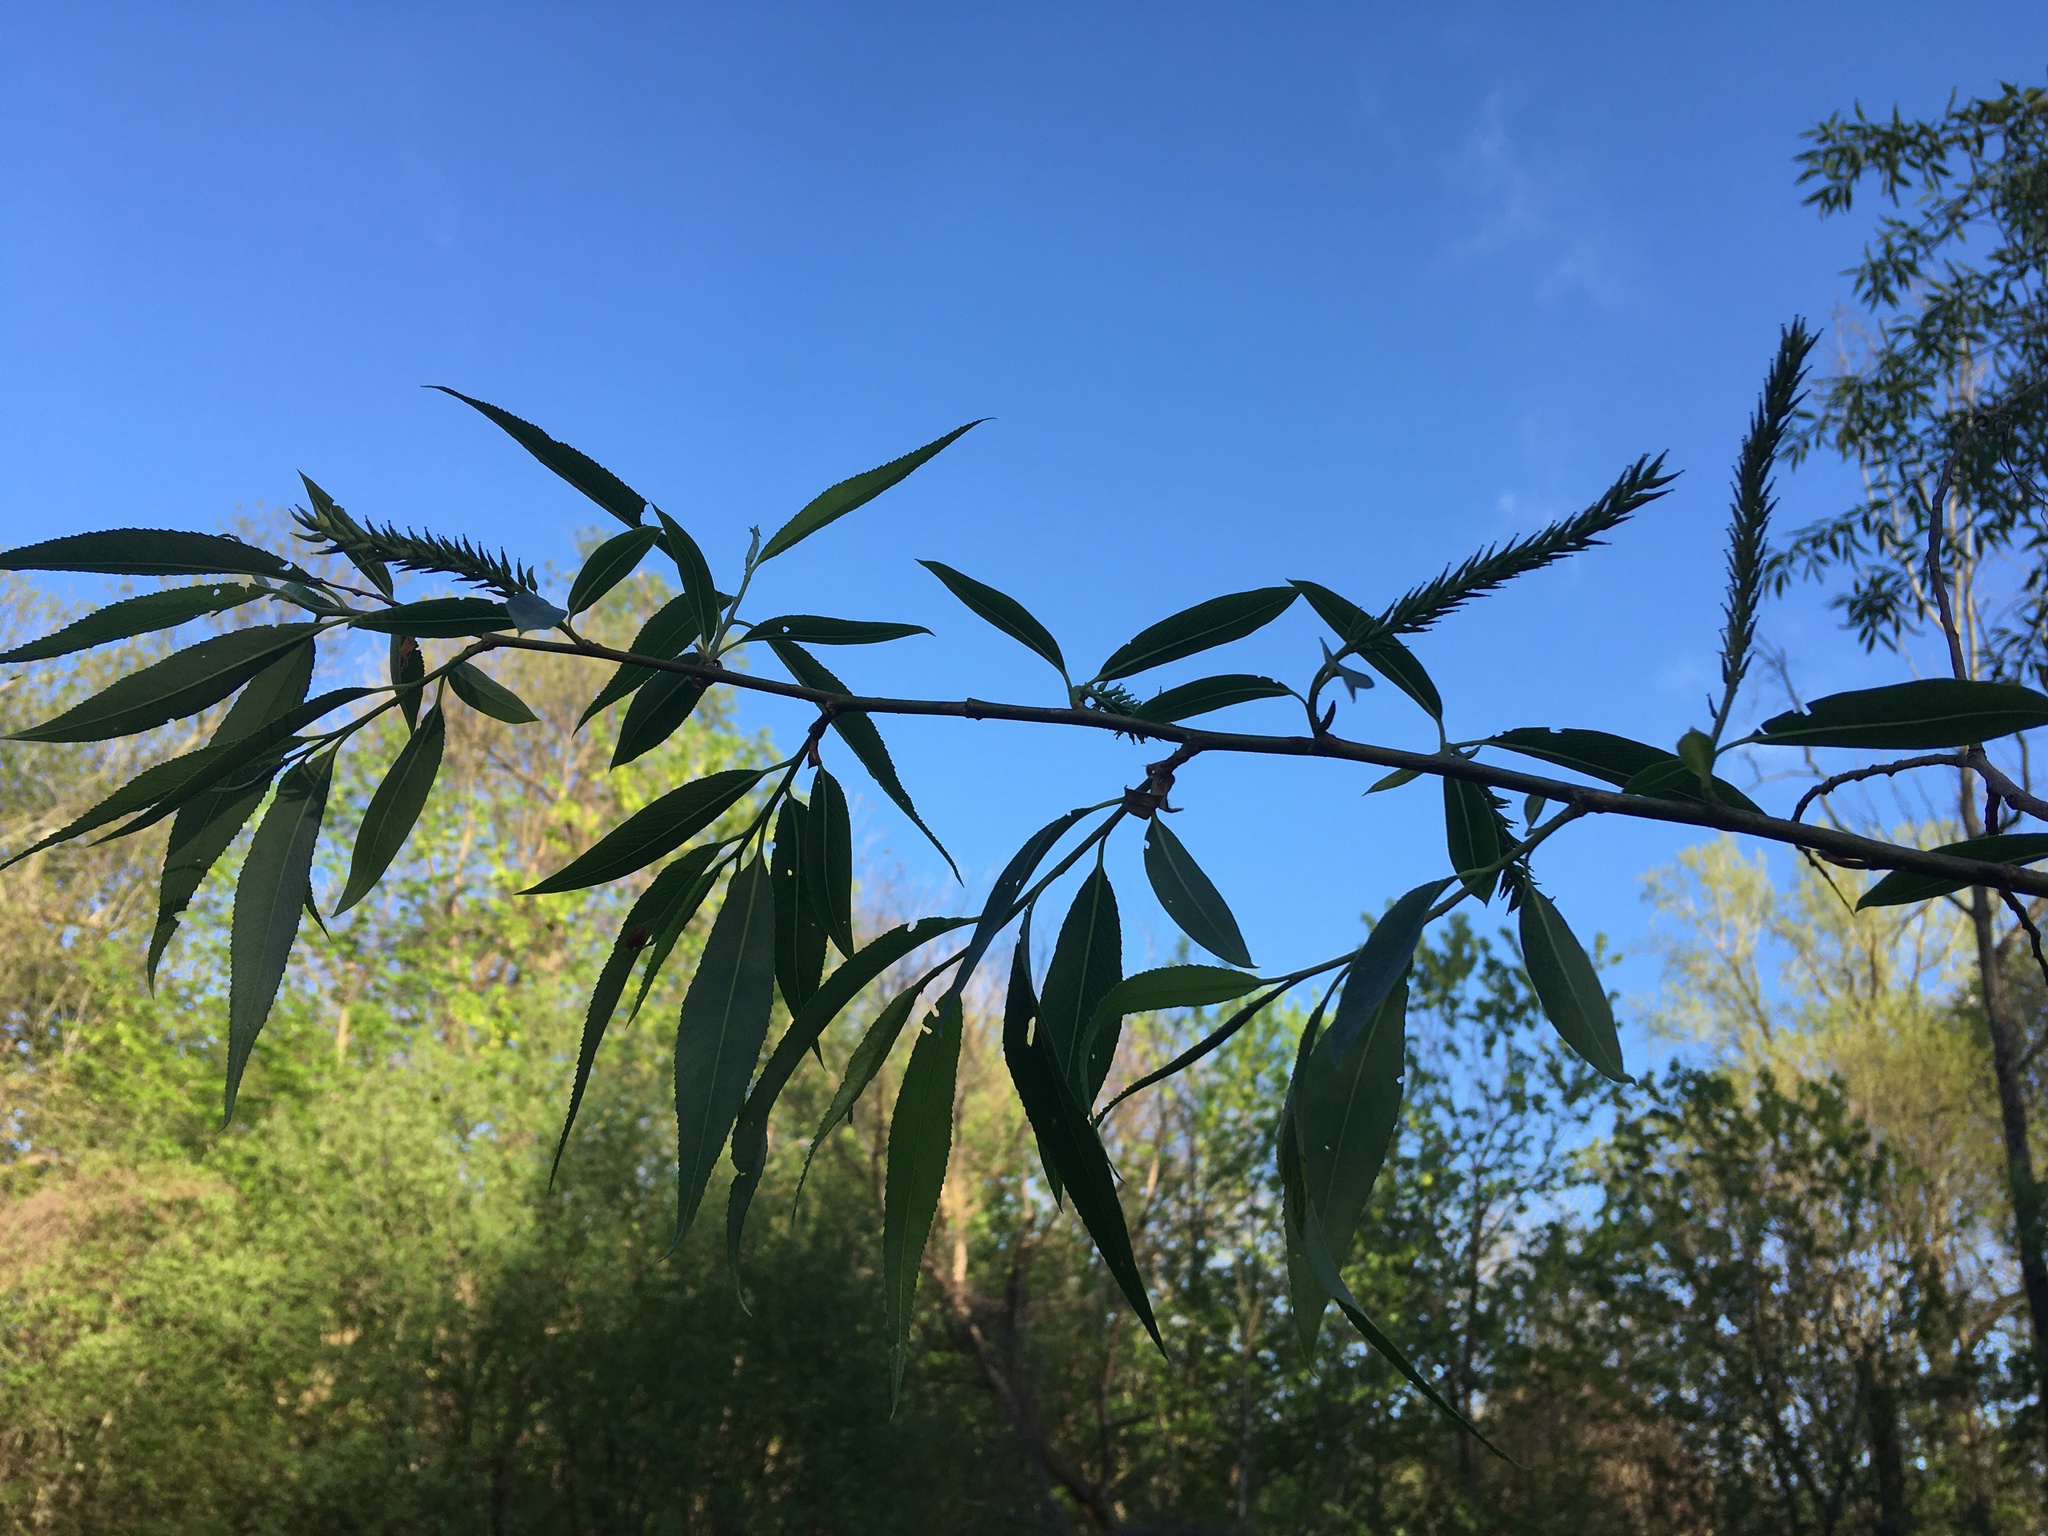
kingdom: Plantae
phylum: Tracheophyta
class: Magnoliopsida
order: Malpighiales
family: Salicaceae
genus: Salix
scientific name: Salix nigra
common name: Black willow
